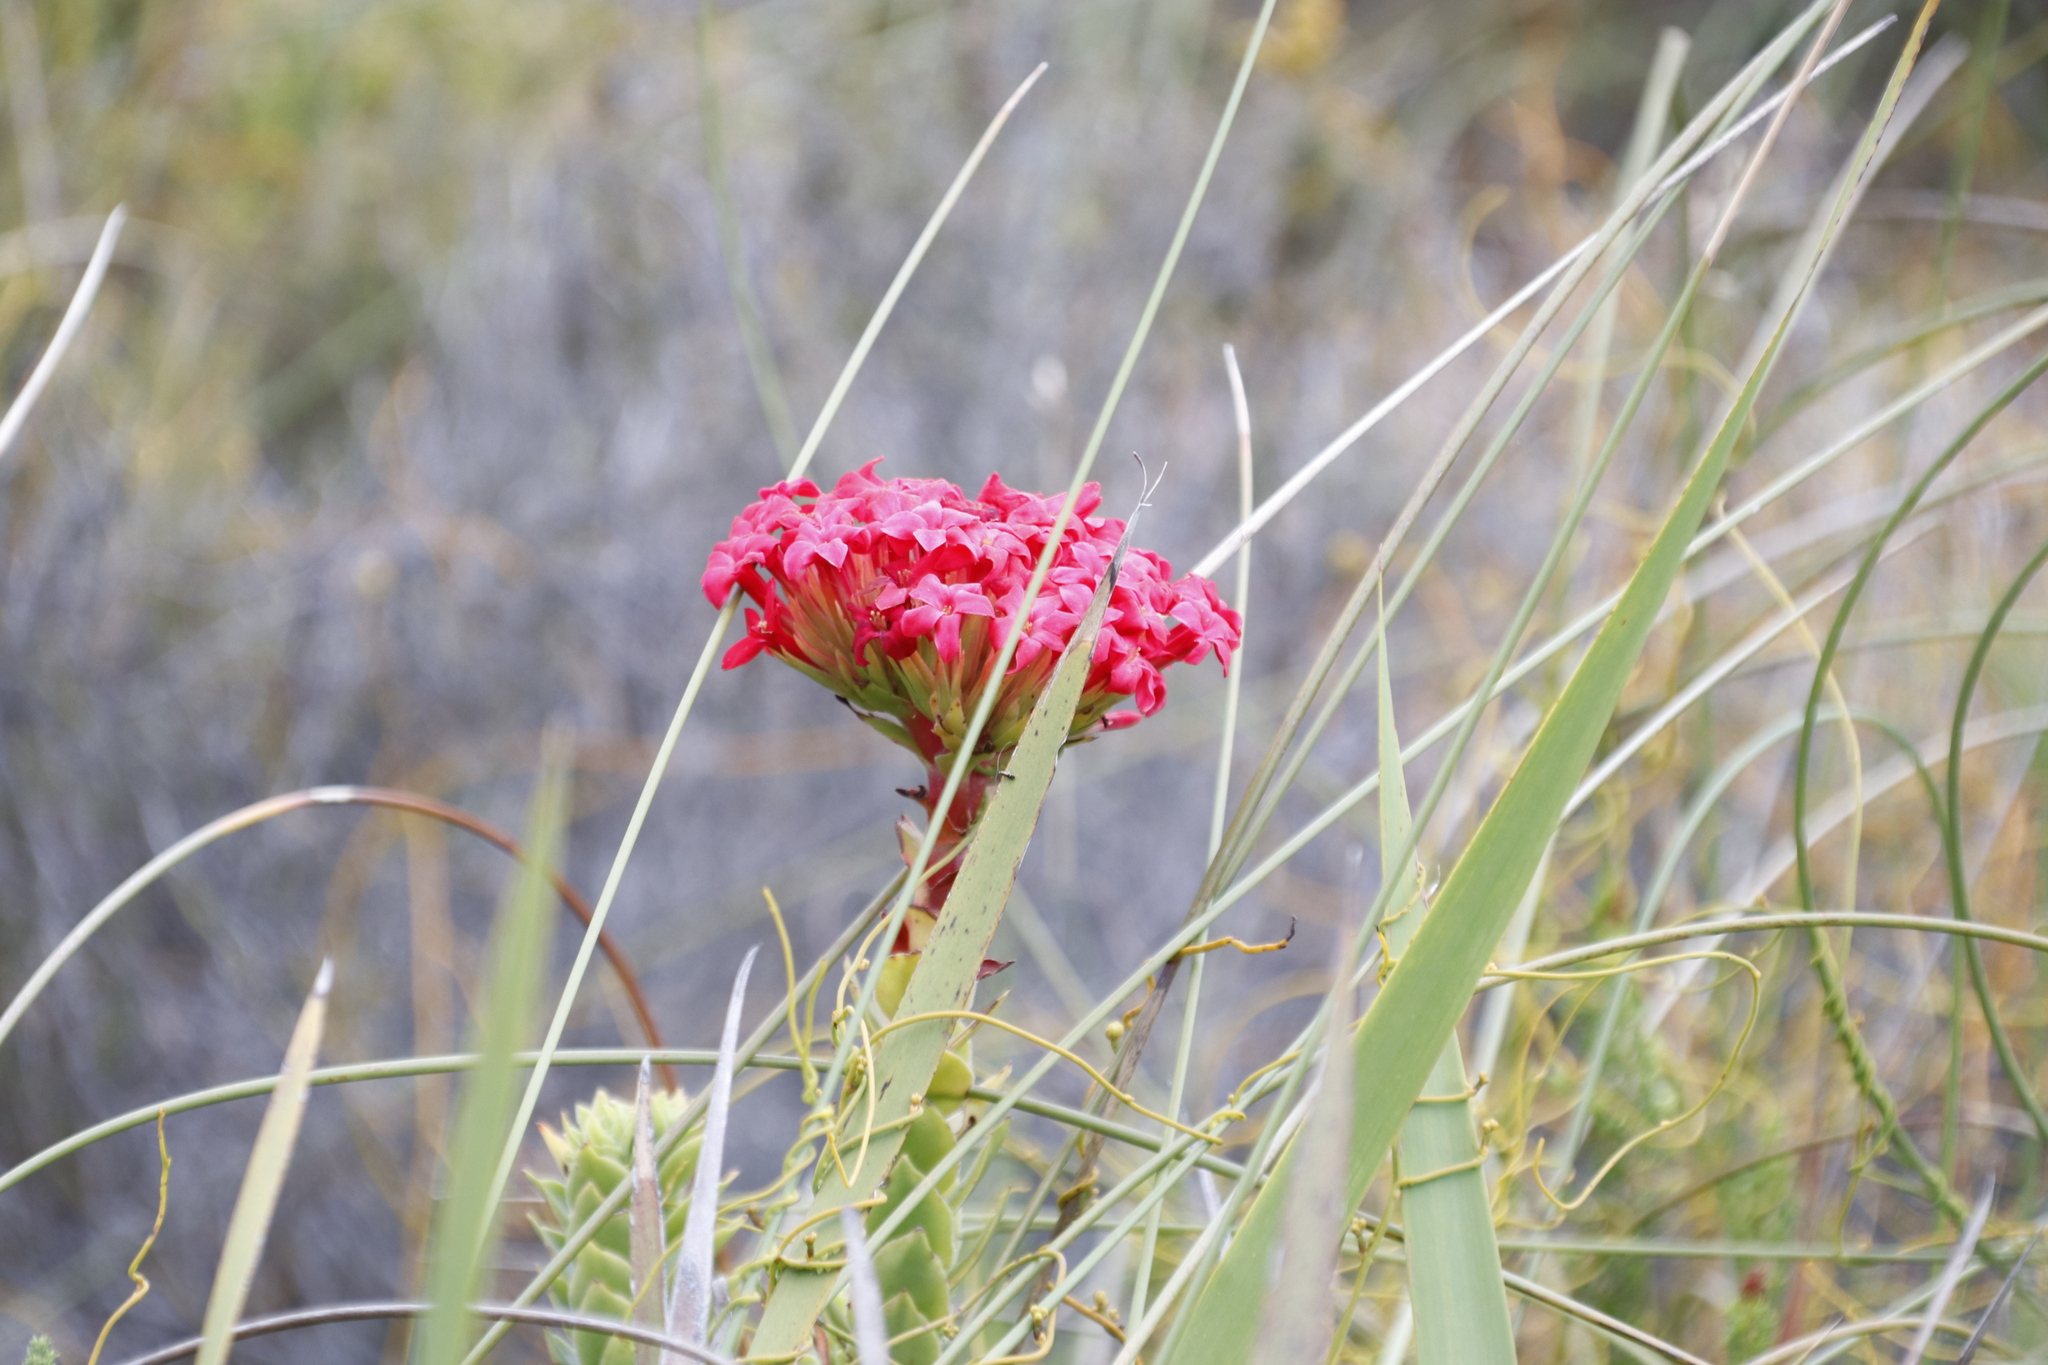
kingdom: Plantae
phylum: Tracheophyta
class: Magnoliopsida
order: Saxifragales
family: Crassulaceae
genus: Crassula
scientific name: Crassula coccinea
